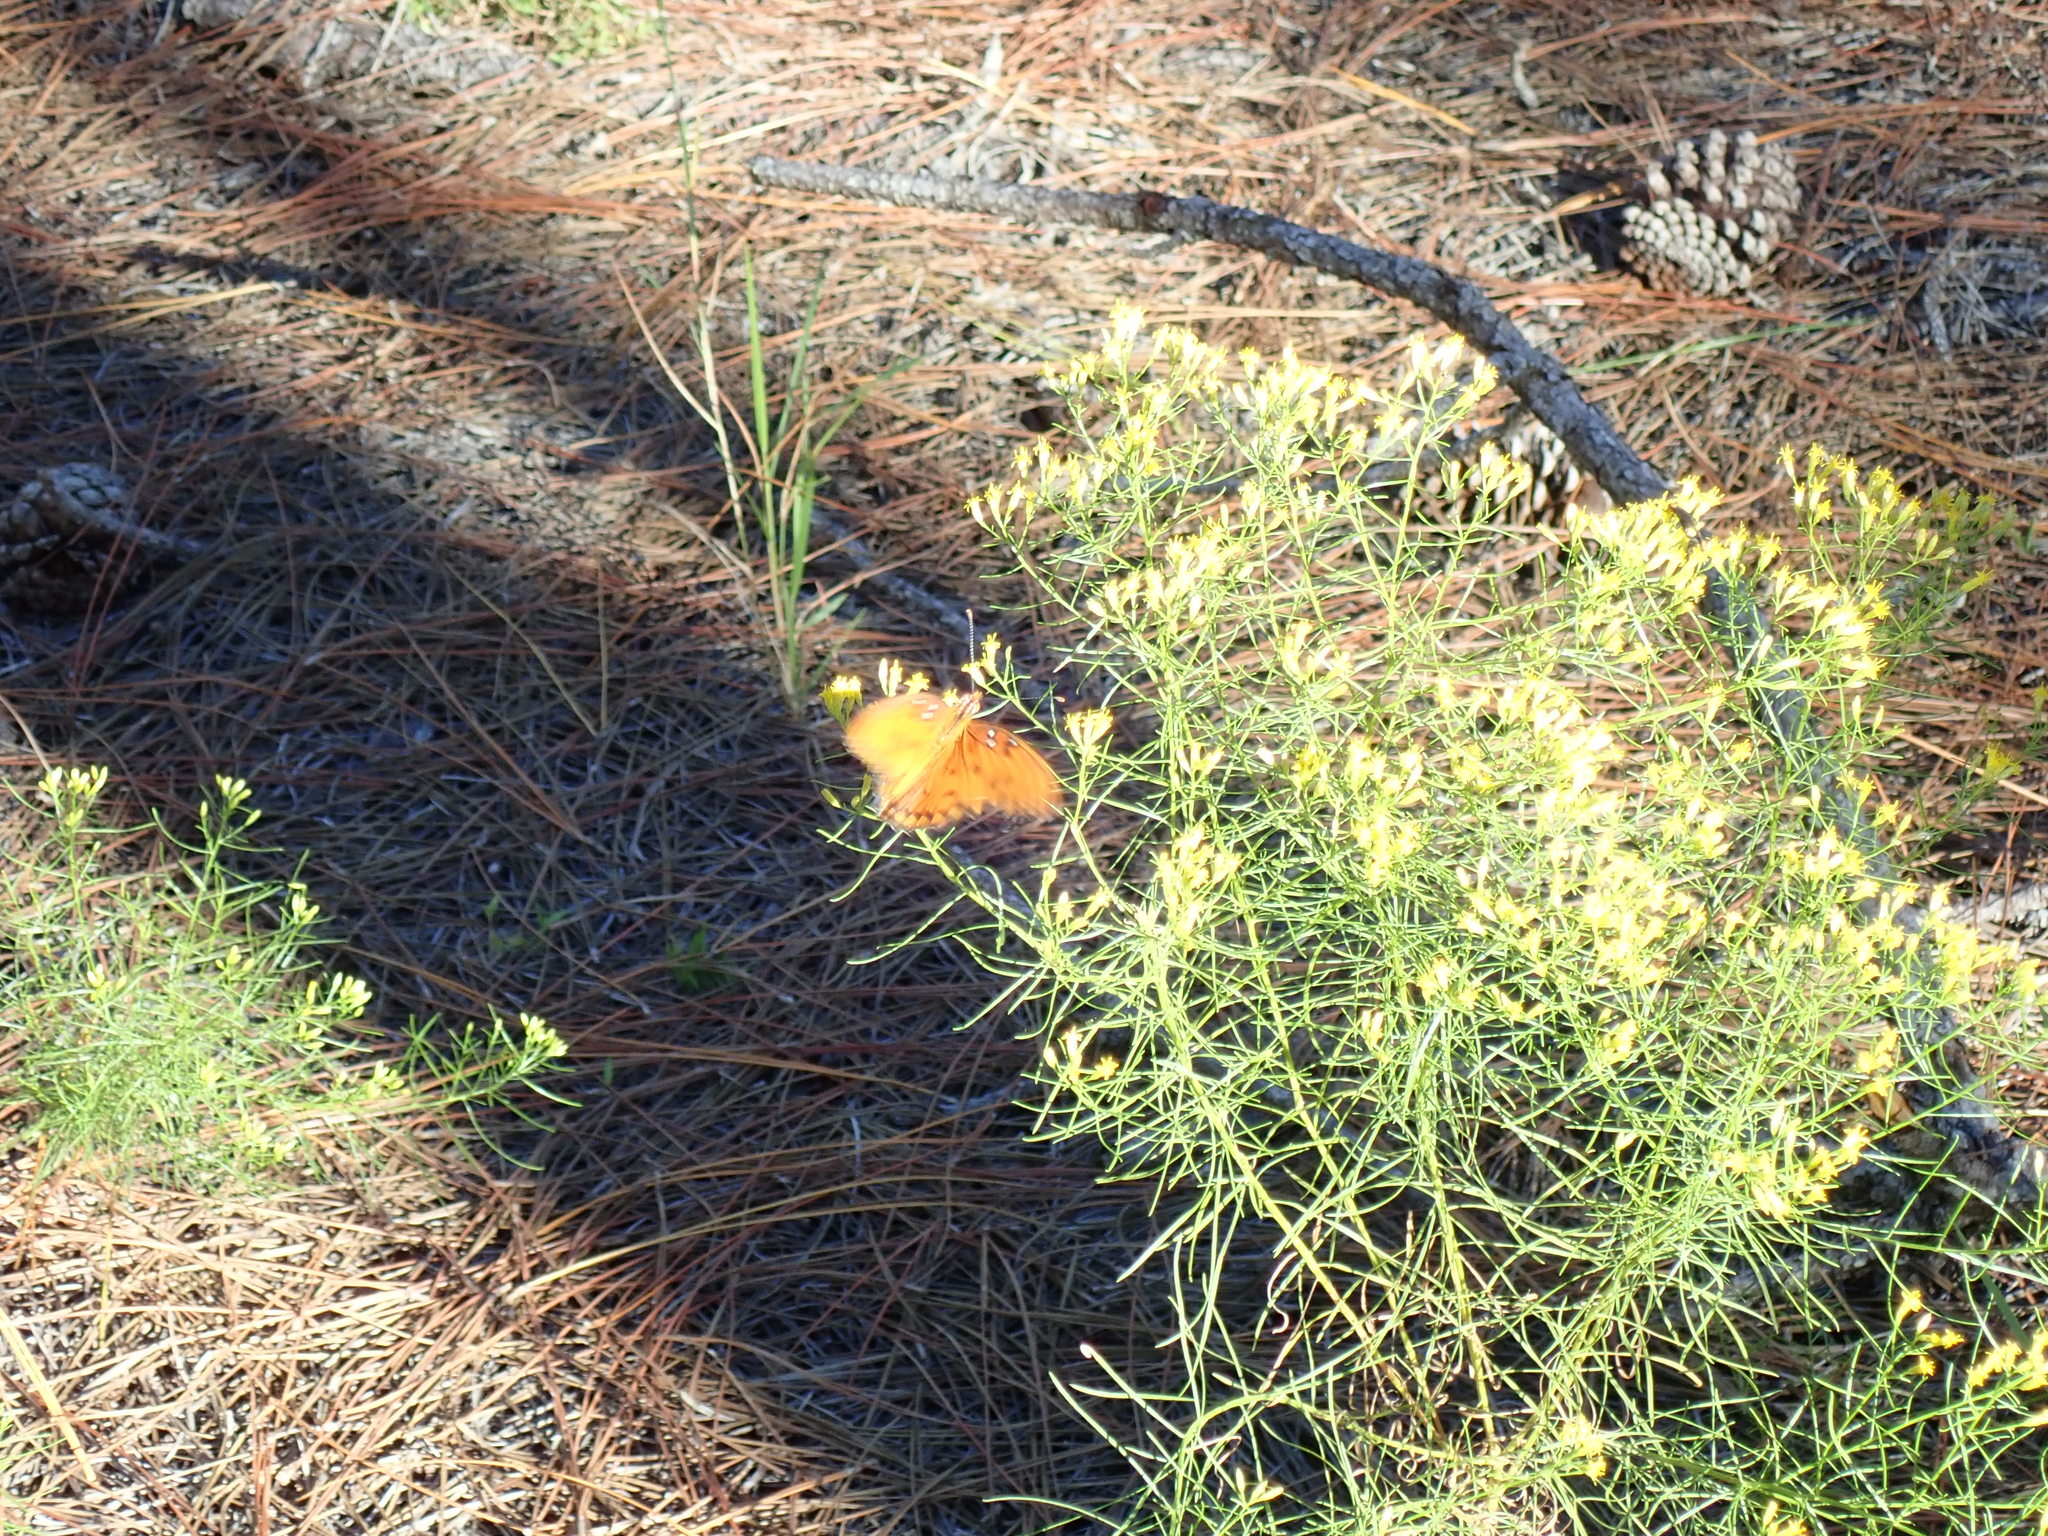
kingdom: Animalia
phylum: Arthropoda
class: Insecta
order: Lepidoptera
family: Nymphalidae
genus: Dione
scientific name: Dione vanillae
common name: Gulf fritillary
